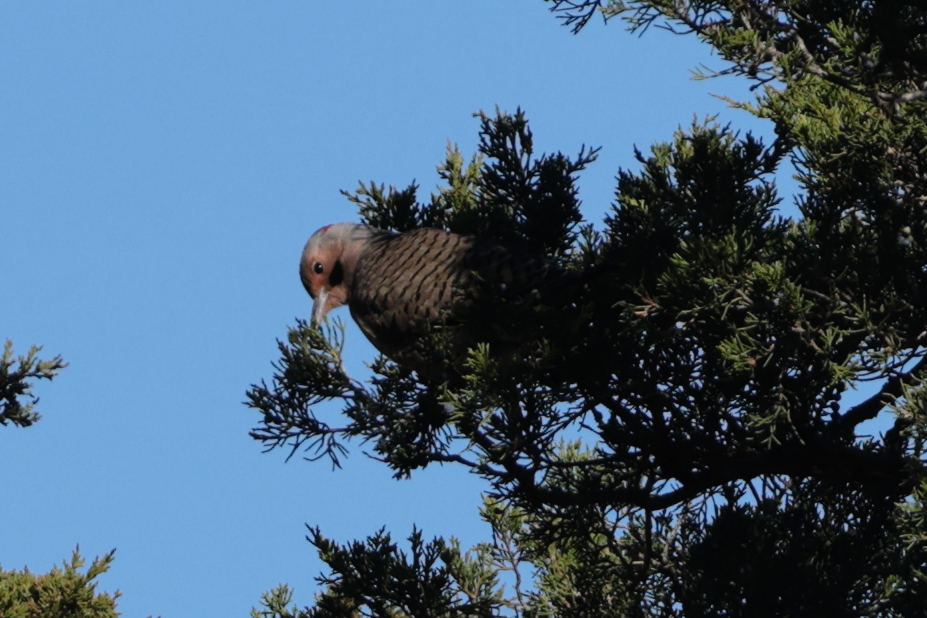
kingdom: Animalia
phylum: Chordata
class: Aves
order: Piciformes
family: Picidae
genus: Colaptes
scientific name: Colaptes auratus
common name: Northern flicker
